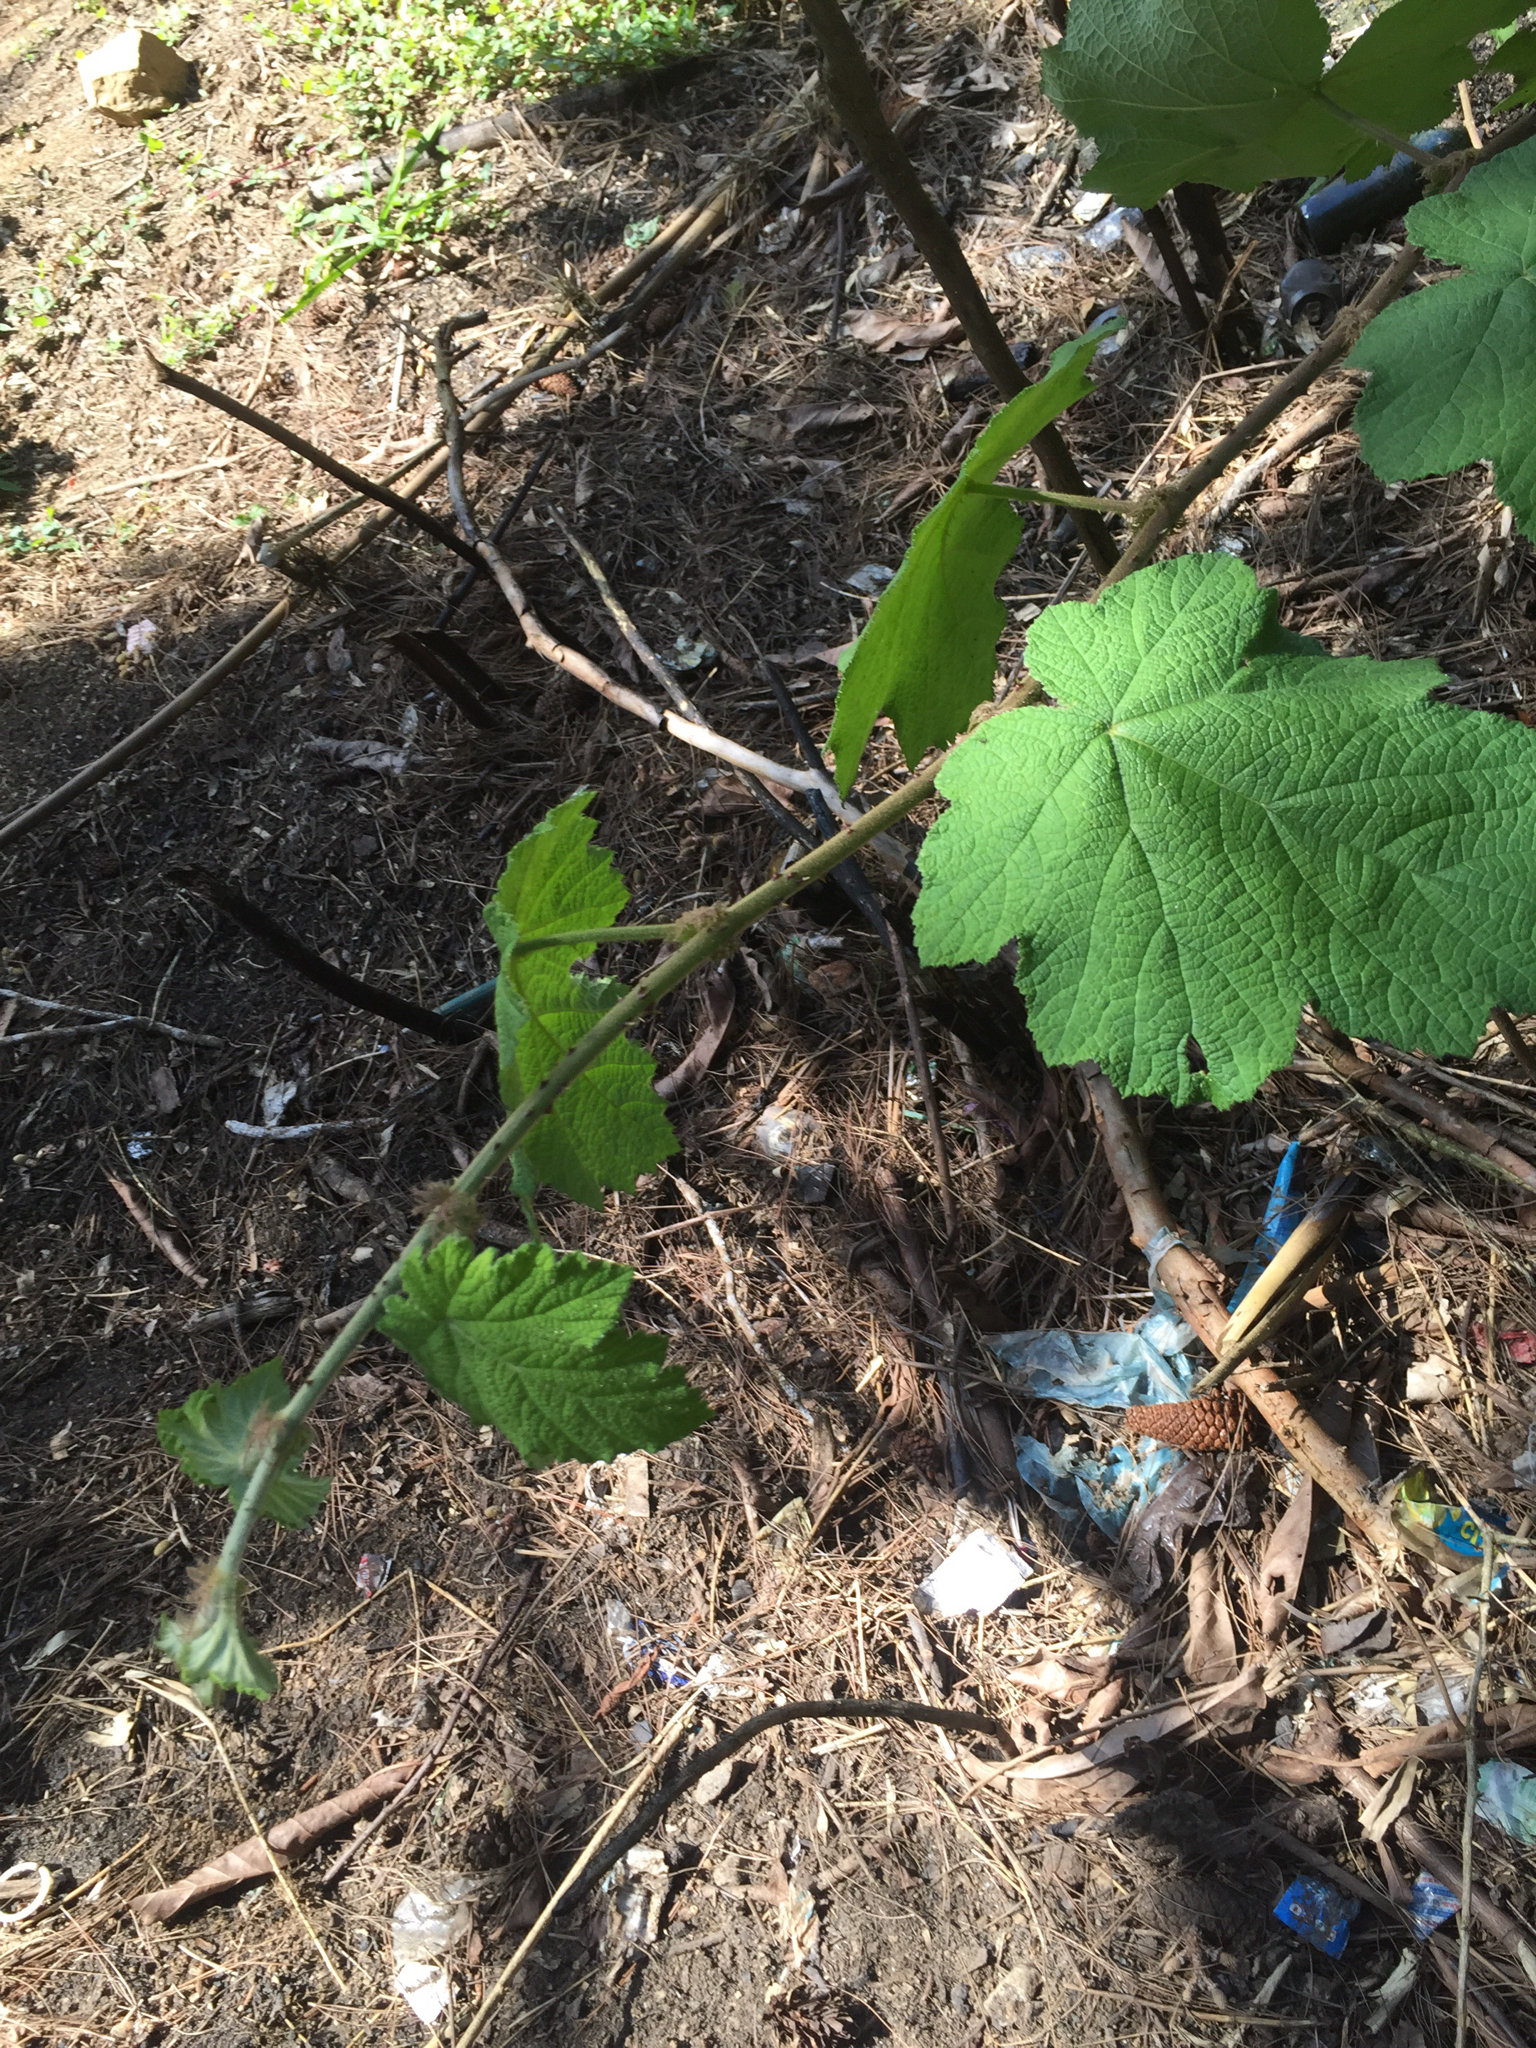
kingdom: Plantae
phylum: Tracheophyta
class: Magnoliopsida
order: Rosales
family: Rosaceae
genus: Rubus
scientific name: Rubus alceifolius
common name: Giant bramble
